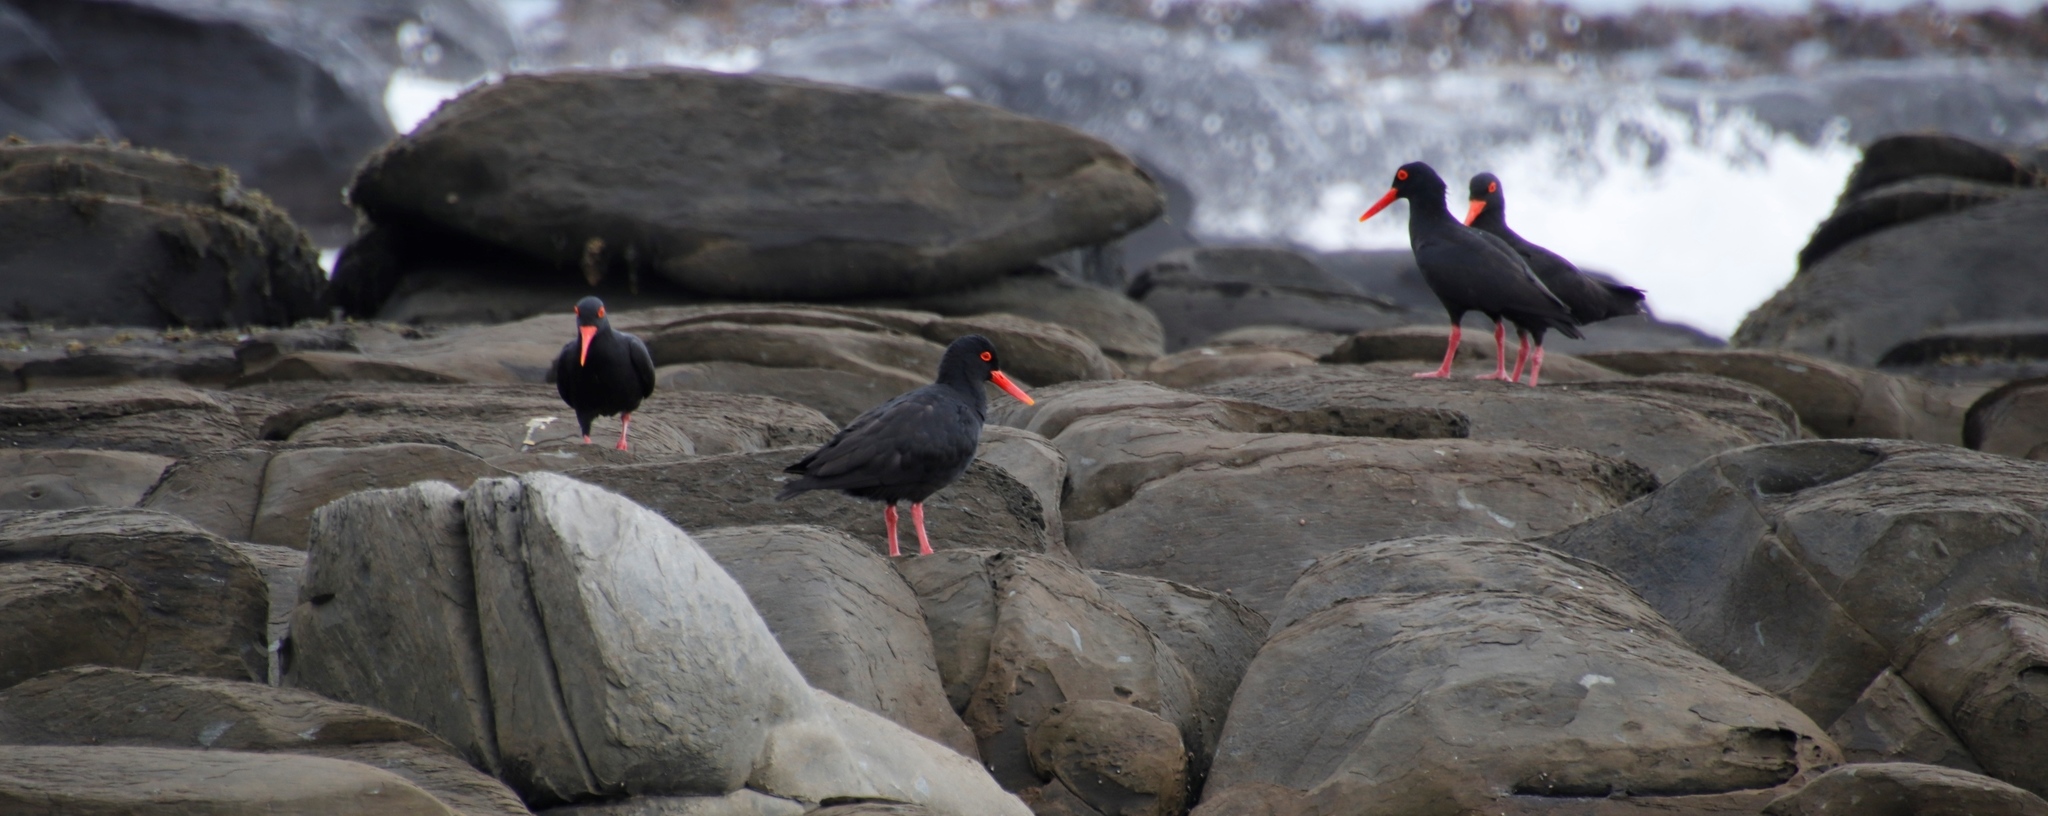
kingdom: Animalia
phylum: Chordata
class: Aves
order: Charadriiformes
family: Haematopodidae
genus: Haematopus
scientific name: Haematopus moquini
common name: African oystercatcher
